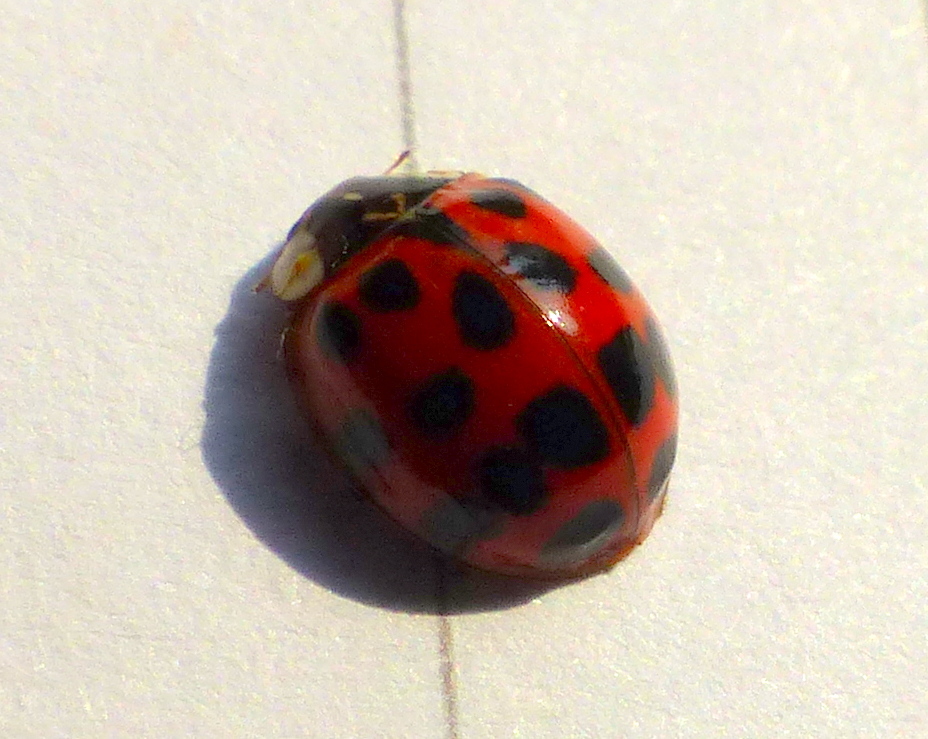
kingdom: Animalia
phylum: Arthropoda
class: Insecta
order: Coleoptera
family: Coccinellidae
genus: Harmonia
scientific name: Harmonia axyridis
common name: Harlequin ladybird
